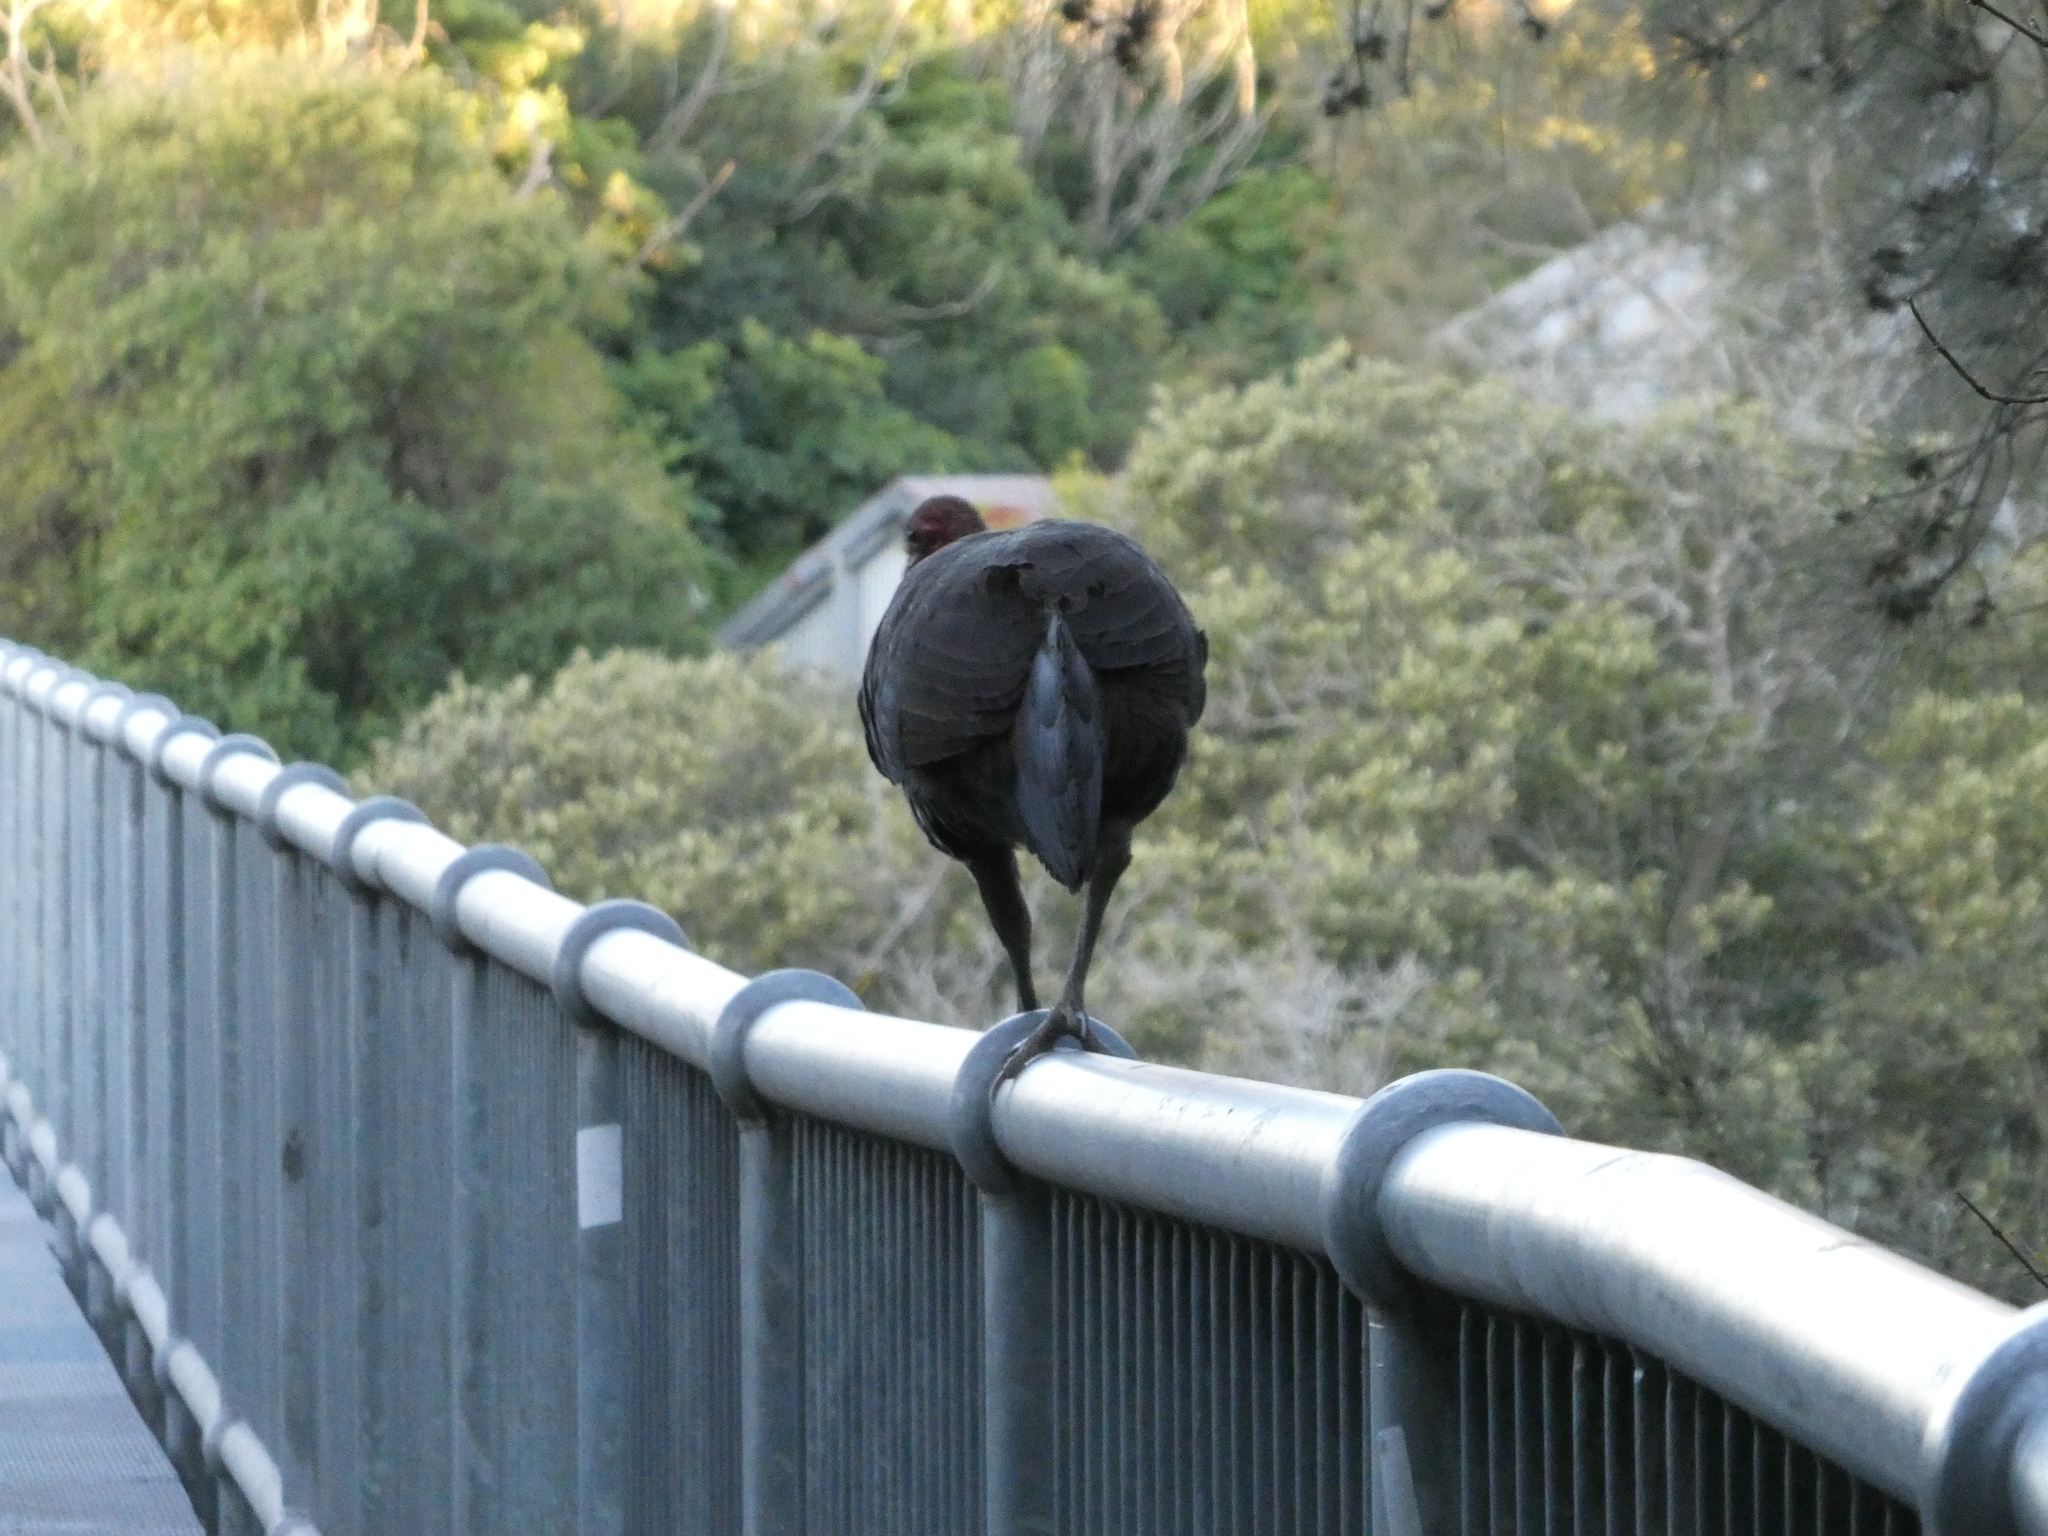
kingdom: Animalia
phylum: Chordata
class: Aves
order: Galliformes
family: Megapodiidae
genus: Alectura
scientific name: Alectura lathami
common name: Australian brushturkey
